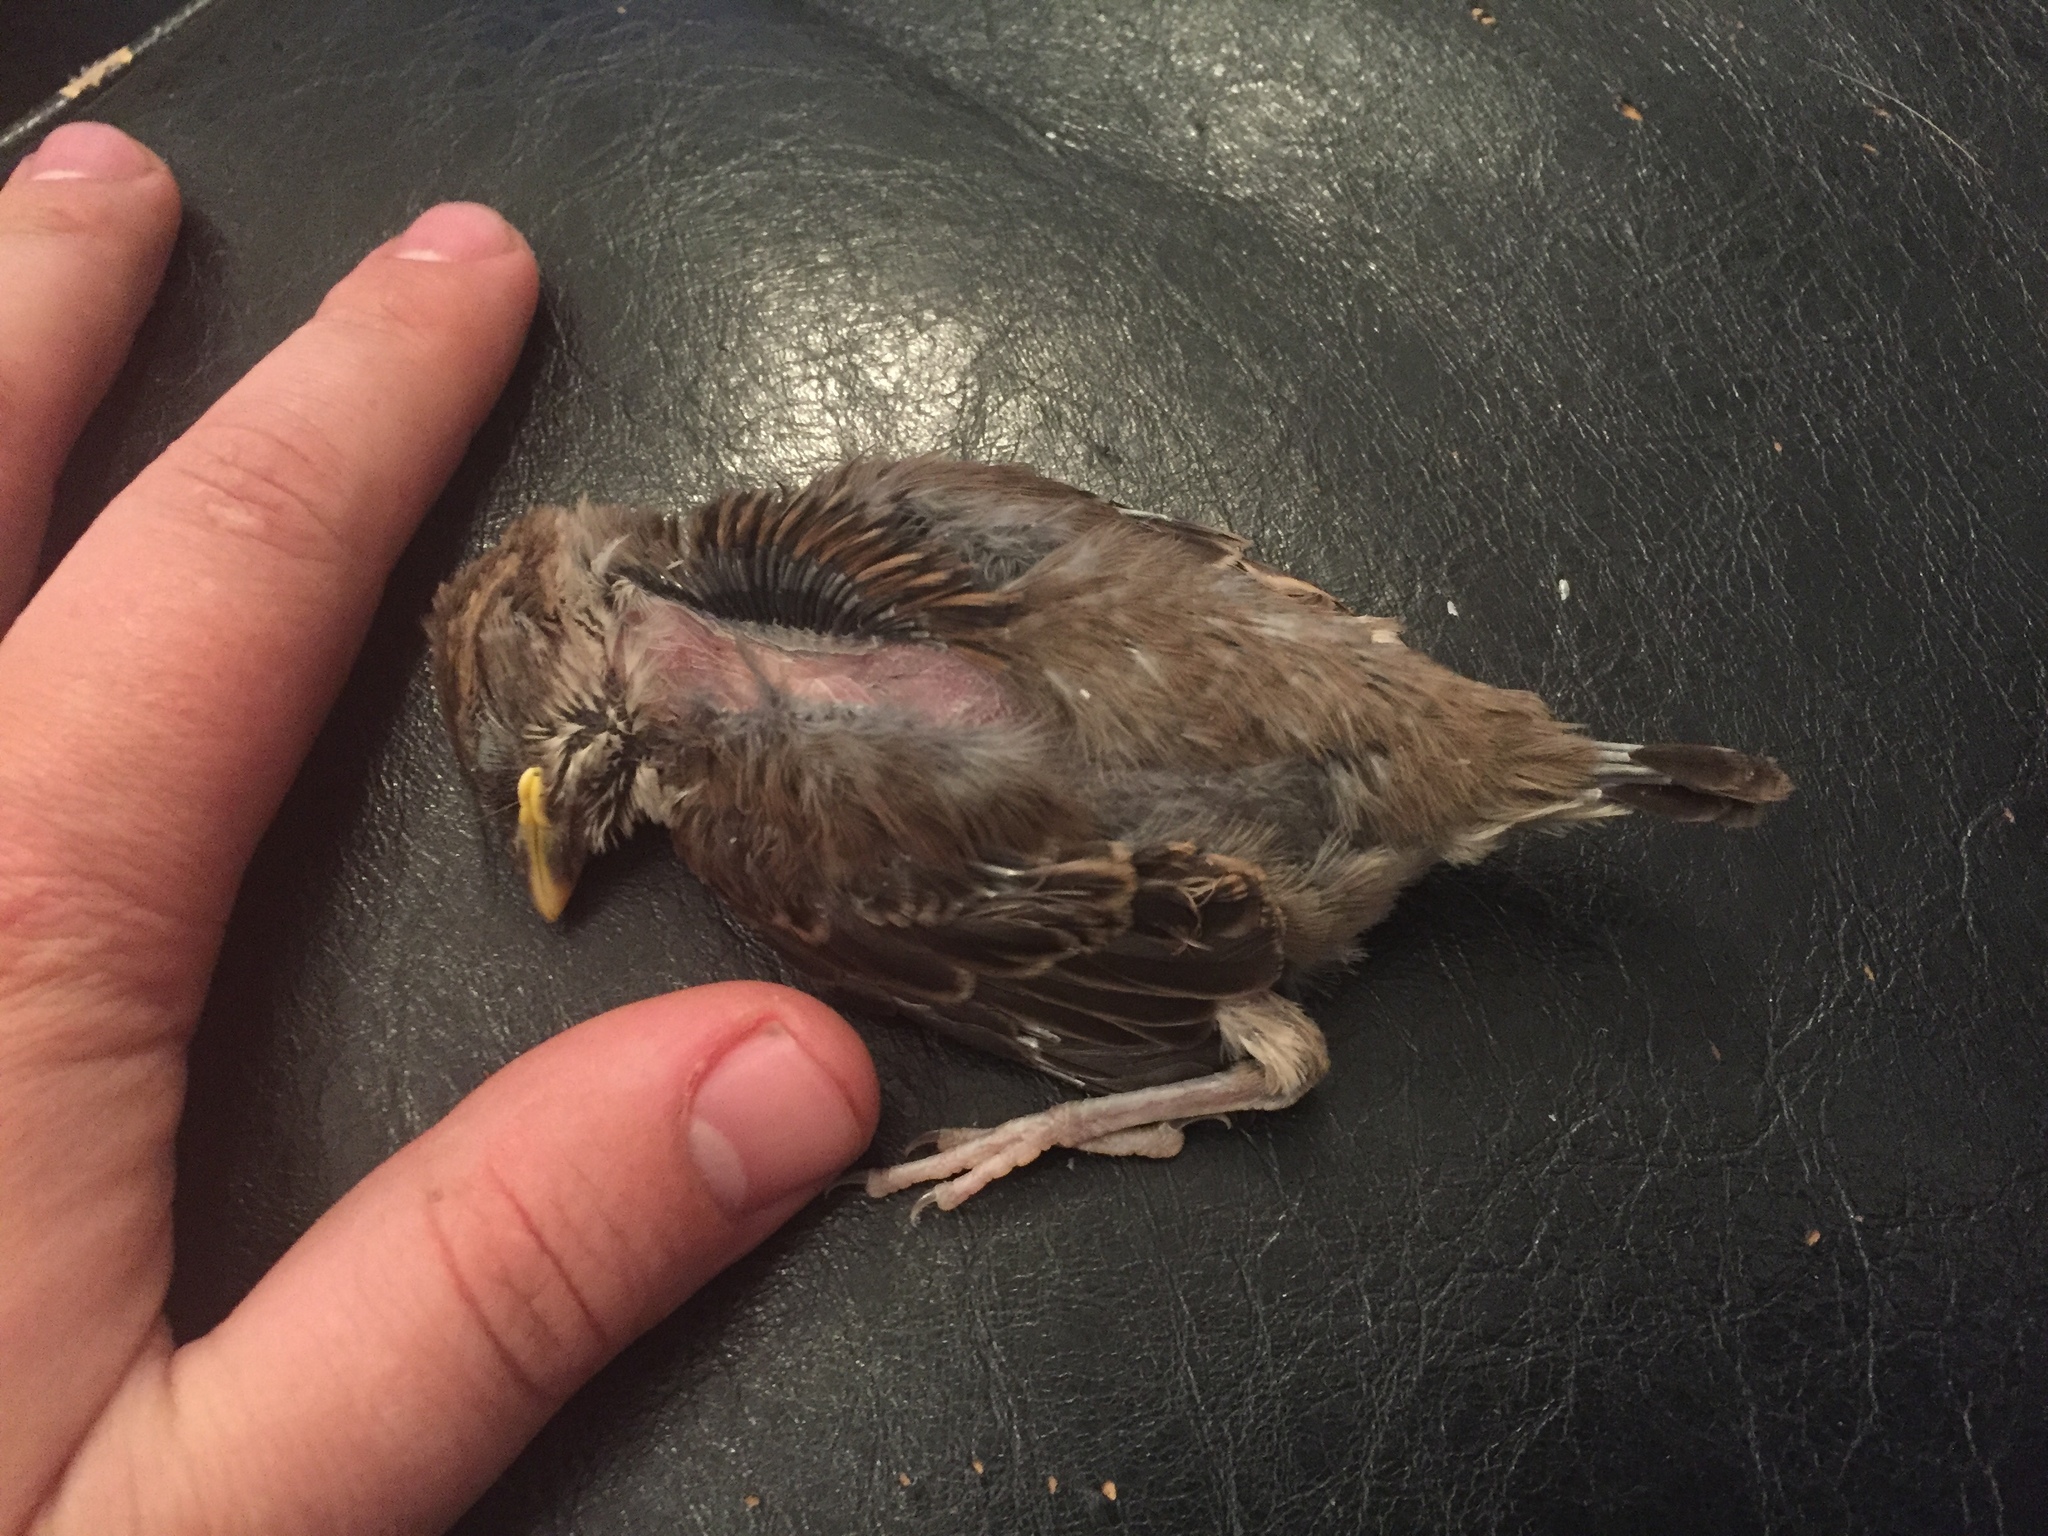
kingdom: Animalia
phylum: Chordata
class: Aves
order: Passeriformes
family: Passeridae
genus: Passer
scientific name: Passer domesticus
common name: House sparrow
